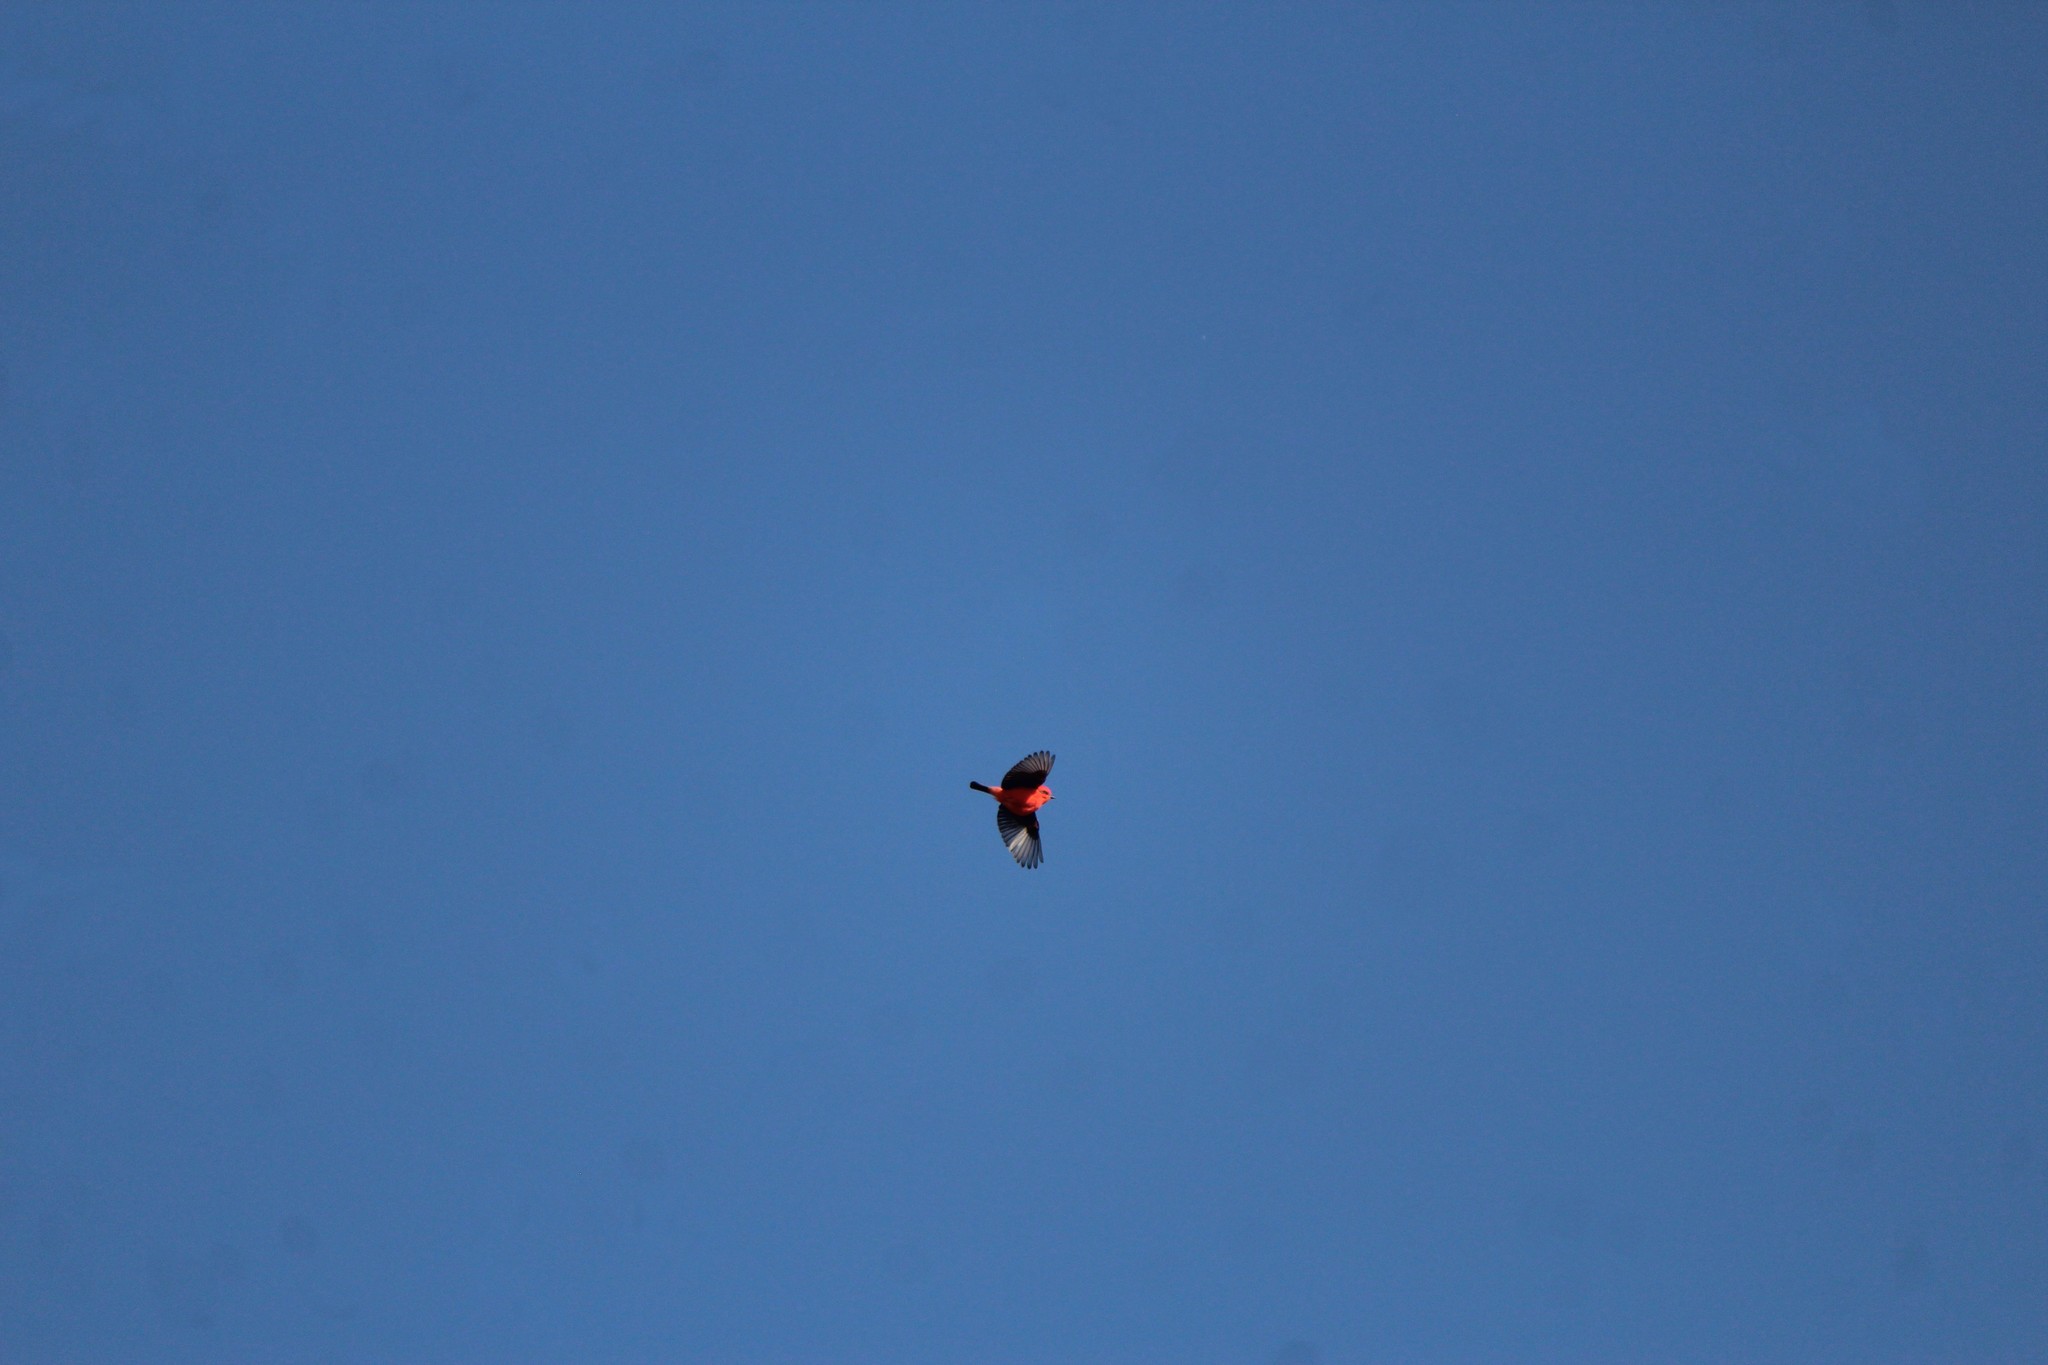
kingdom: Animalia
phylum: Chordata
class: Aves
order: Passeriformes
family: Tyrannidae
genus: Pyrocephalus
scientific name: Pyrocephalus rubinus
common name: Vermilion flycatcher
